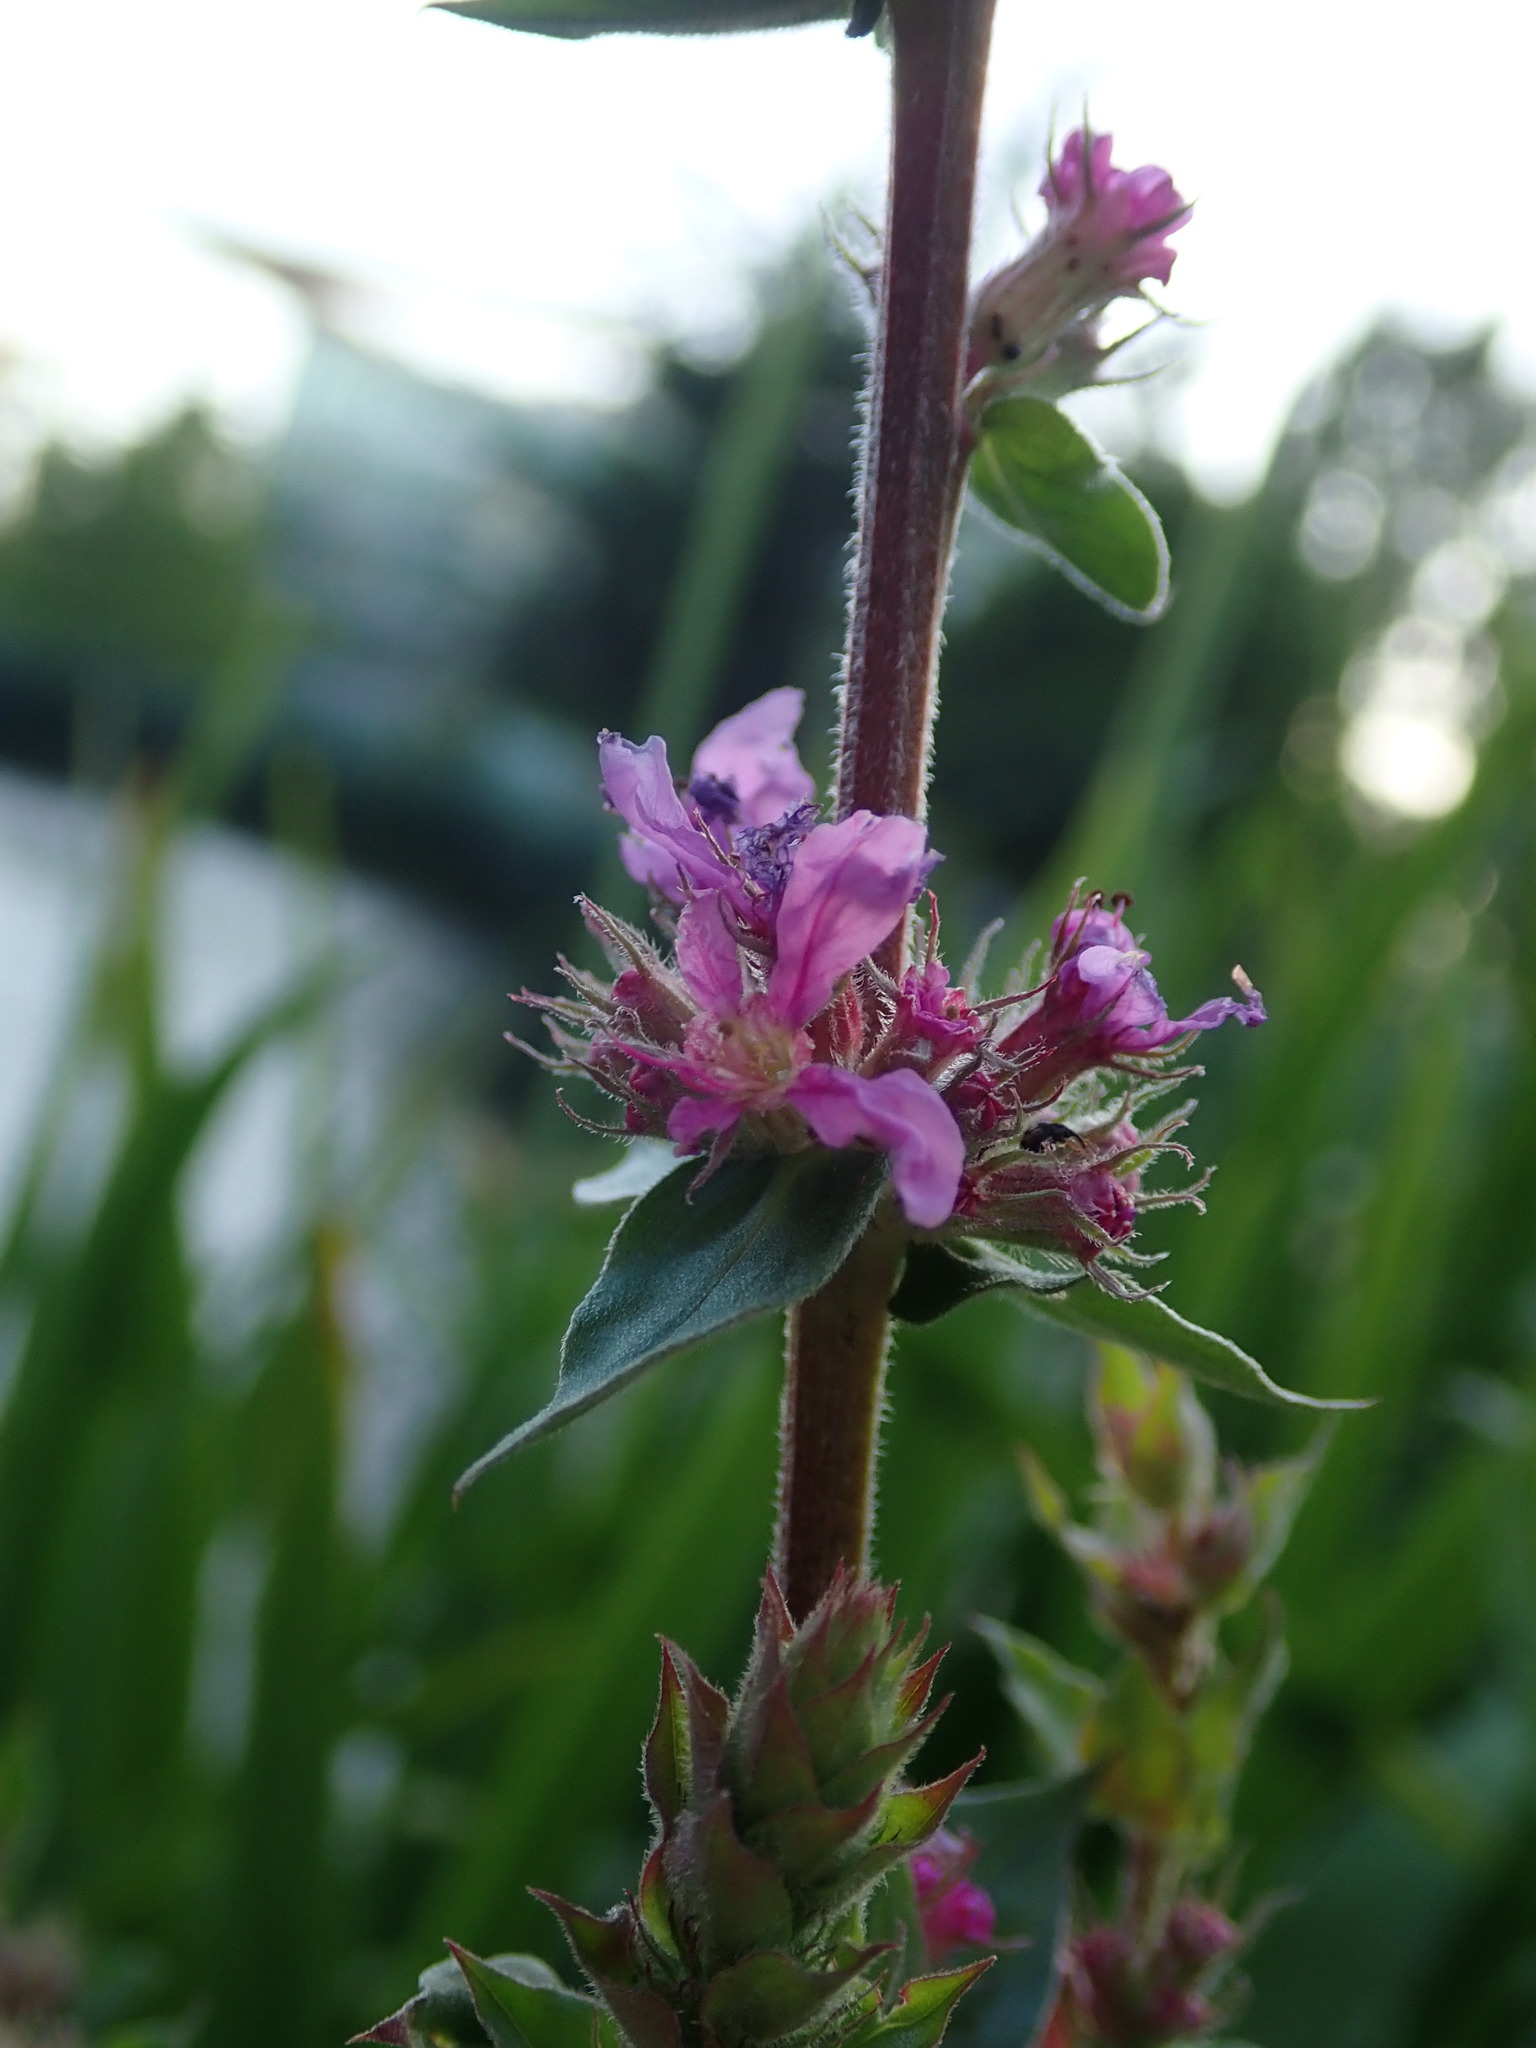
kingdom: Plantae
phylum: Tracheophyta
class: Magnoliopsida
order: Myrtales
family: Lythraceae
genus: Lythrum
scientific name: Lythrum salicaria
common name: Purple loosestrife
